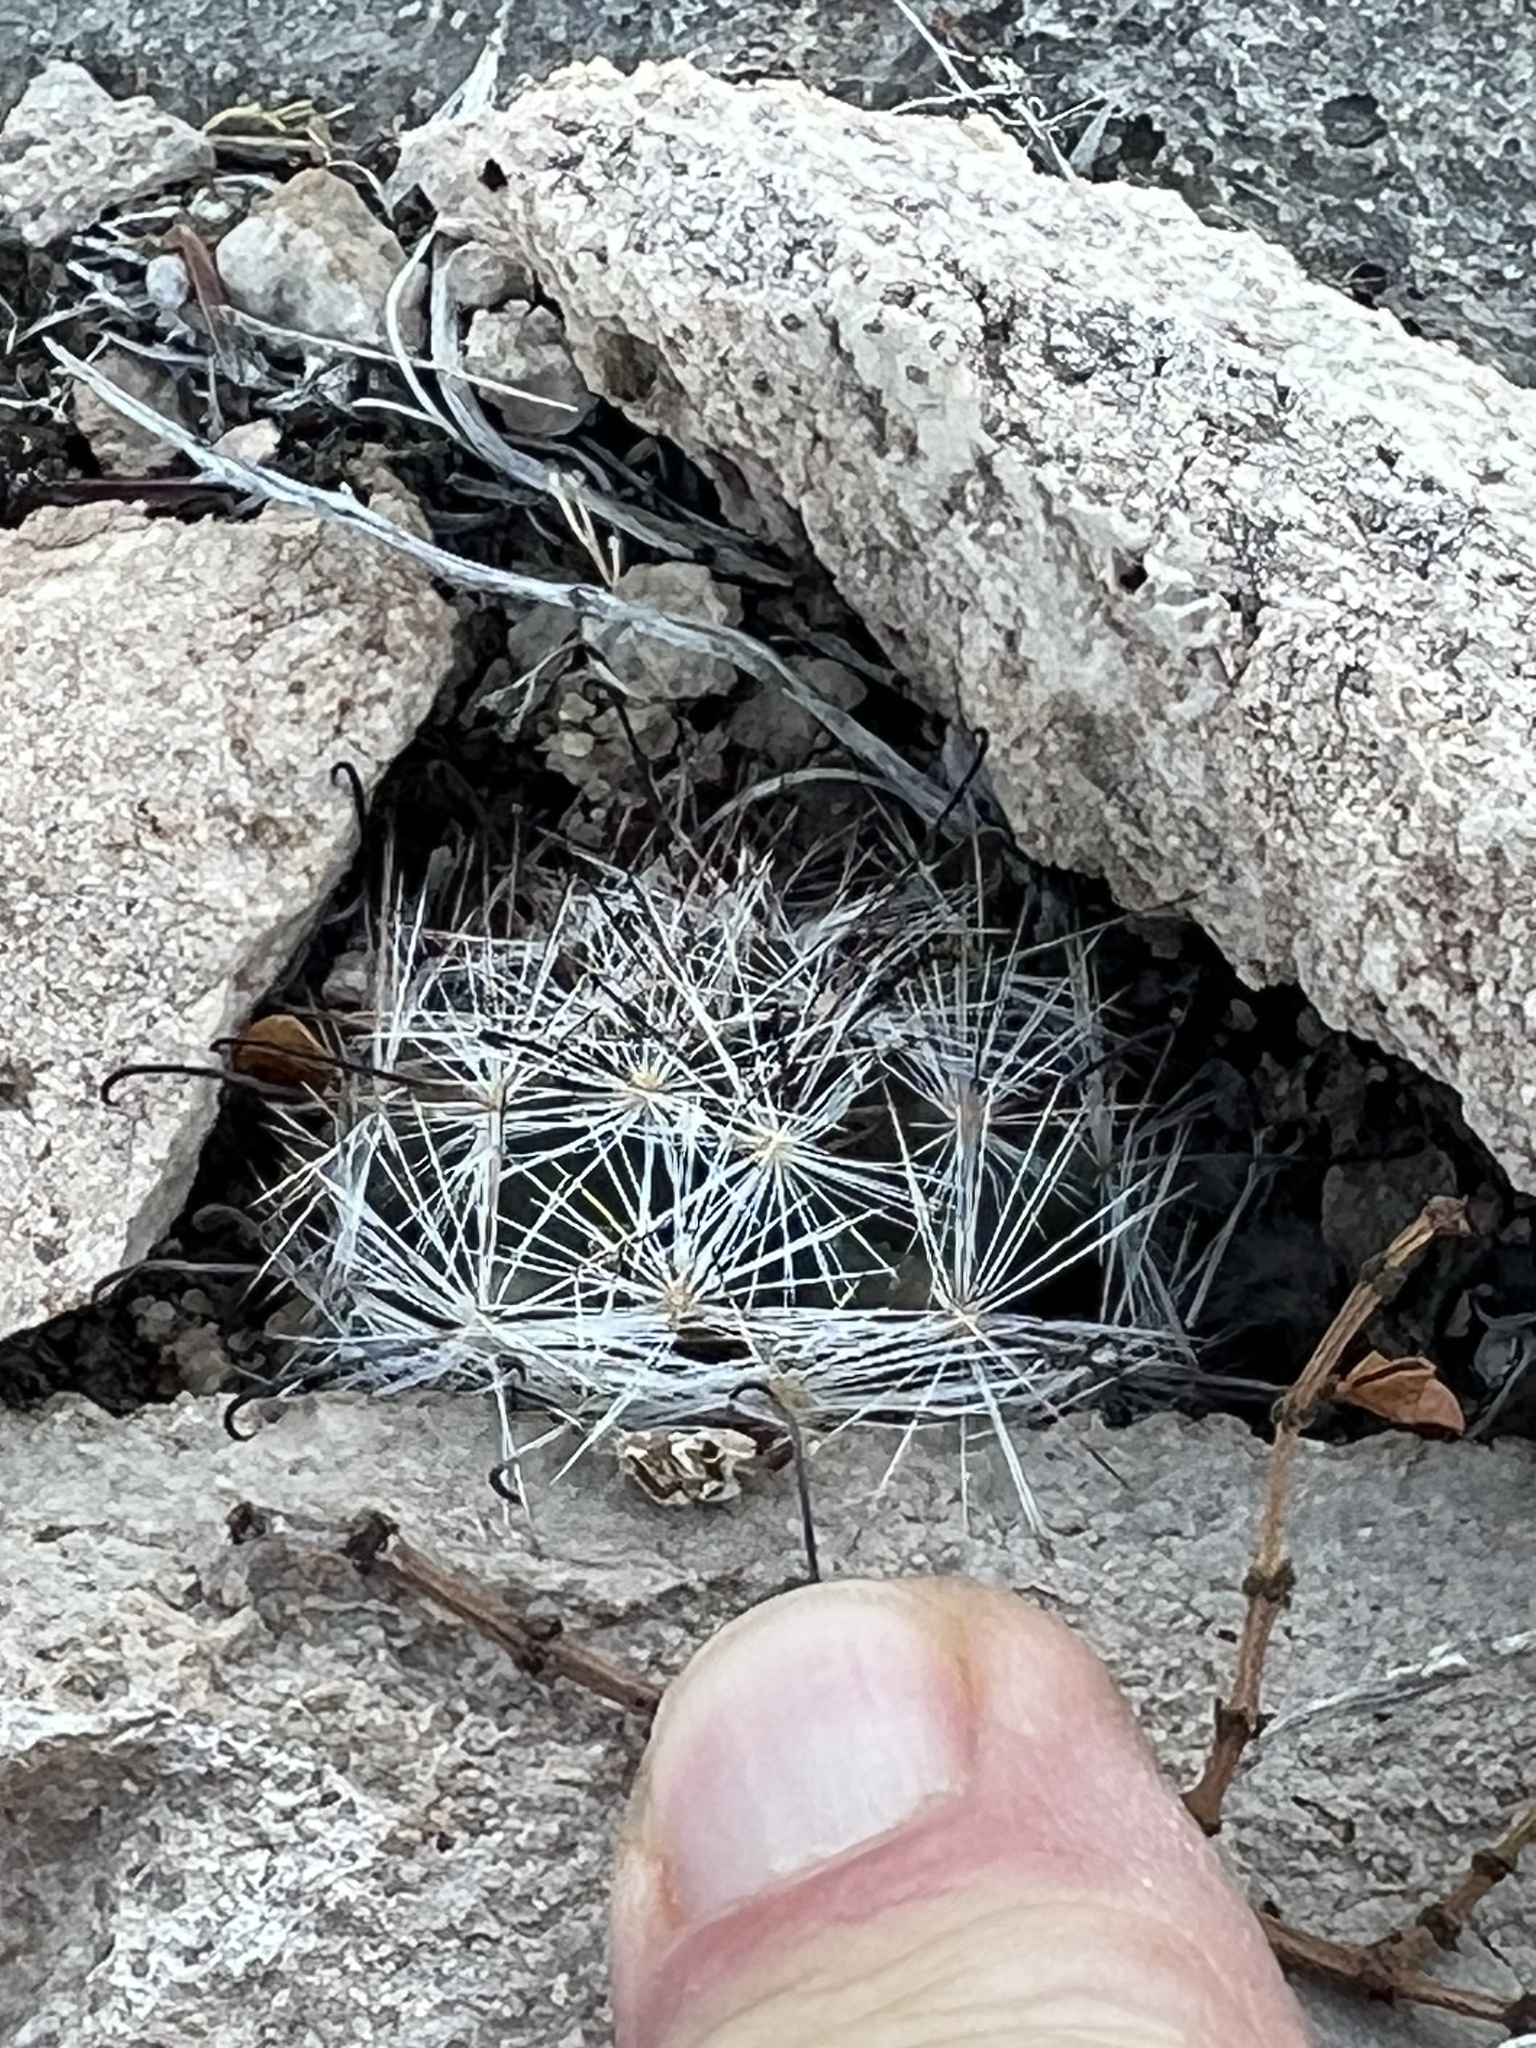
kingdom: Plantae
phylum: Tracheophyta
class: Magnoliopsida
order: Caryophyllales
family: Cactaceae
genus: Cochemiea
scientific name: Cochemiea tetrancistra
